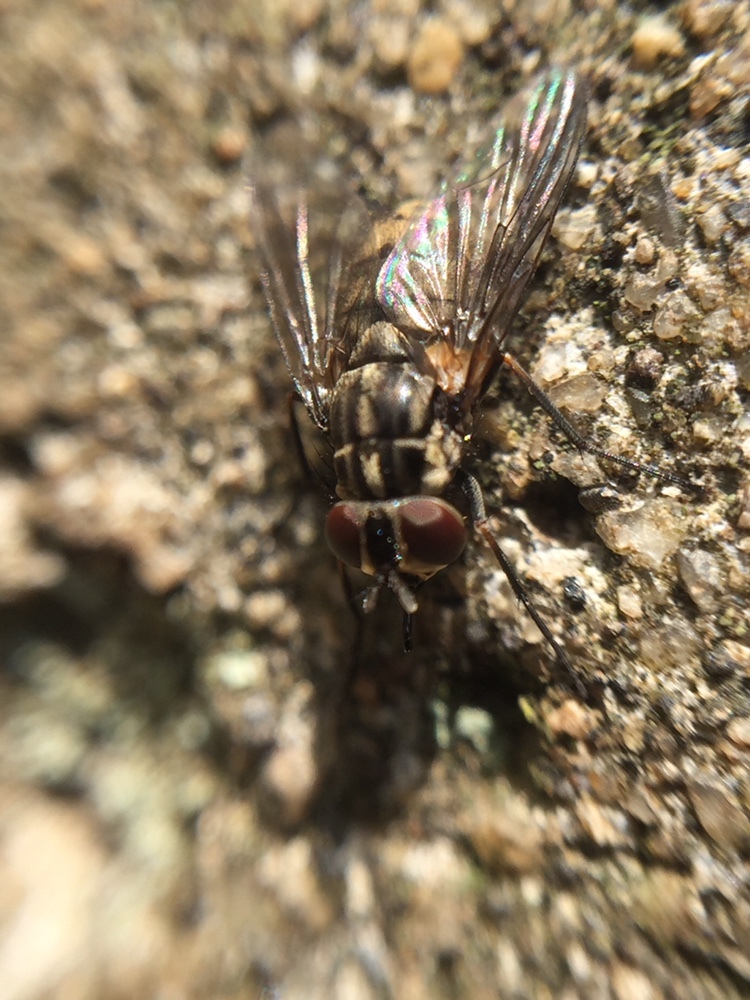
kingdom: Animalia
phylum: Arthropoda
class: Insecta
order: Diptera
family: Muscidae
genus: Stomoxys
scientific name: Stomoxys calcitrans
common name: Stable fly
